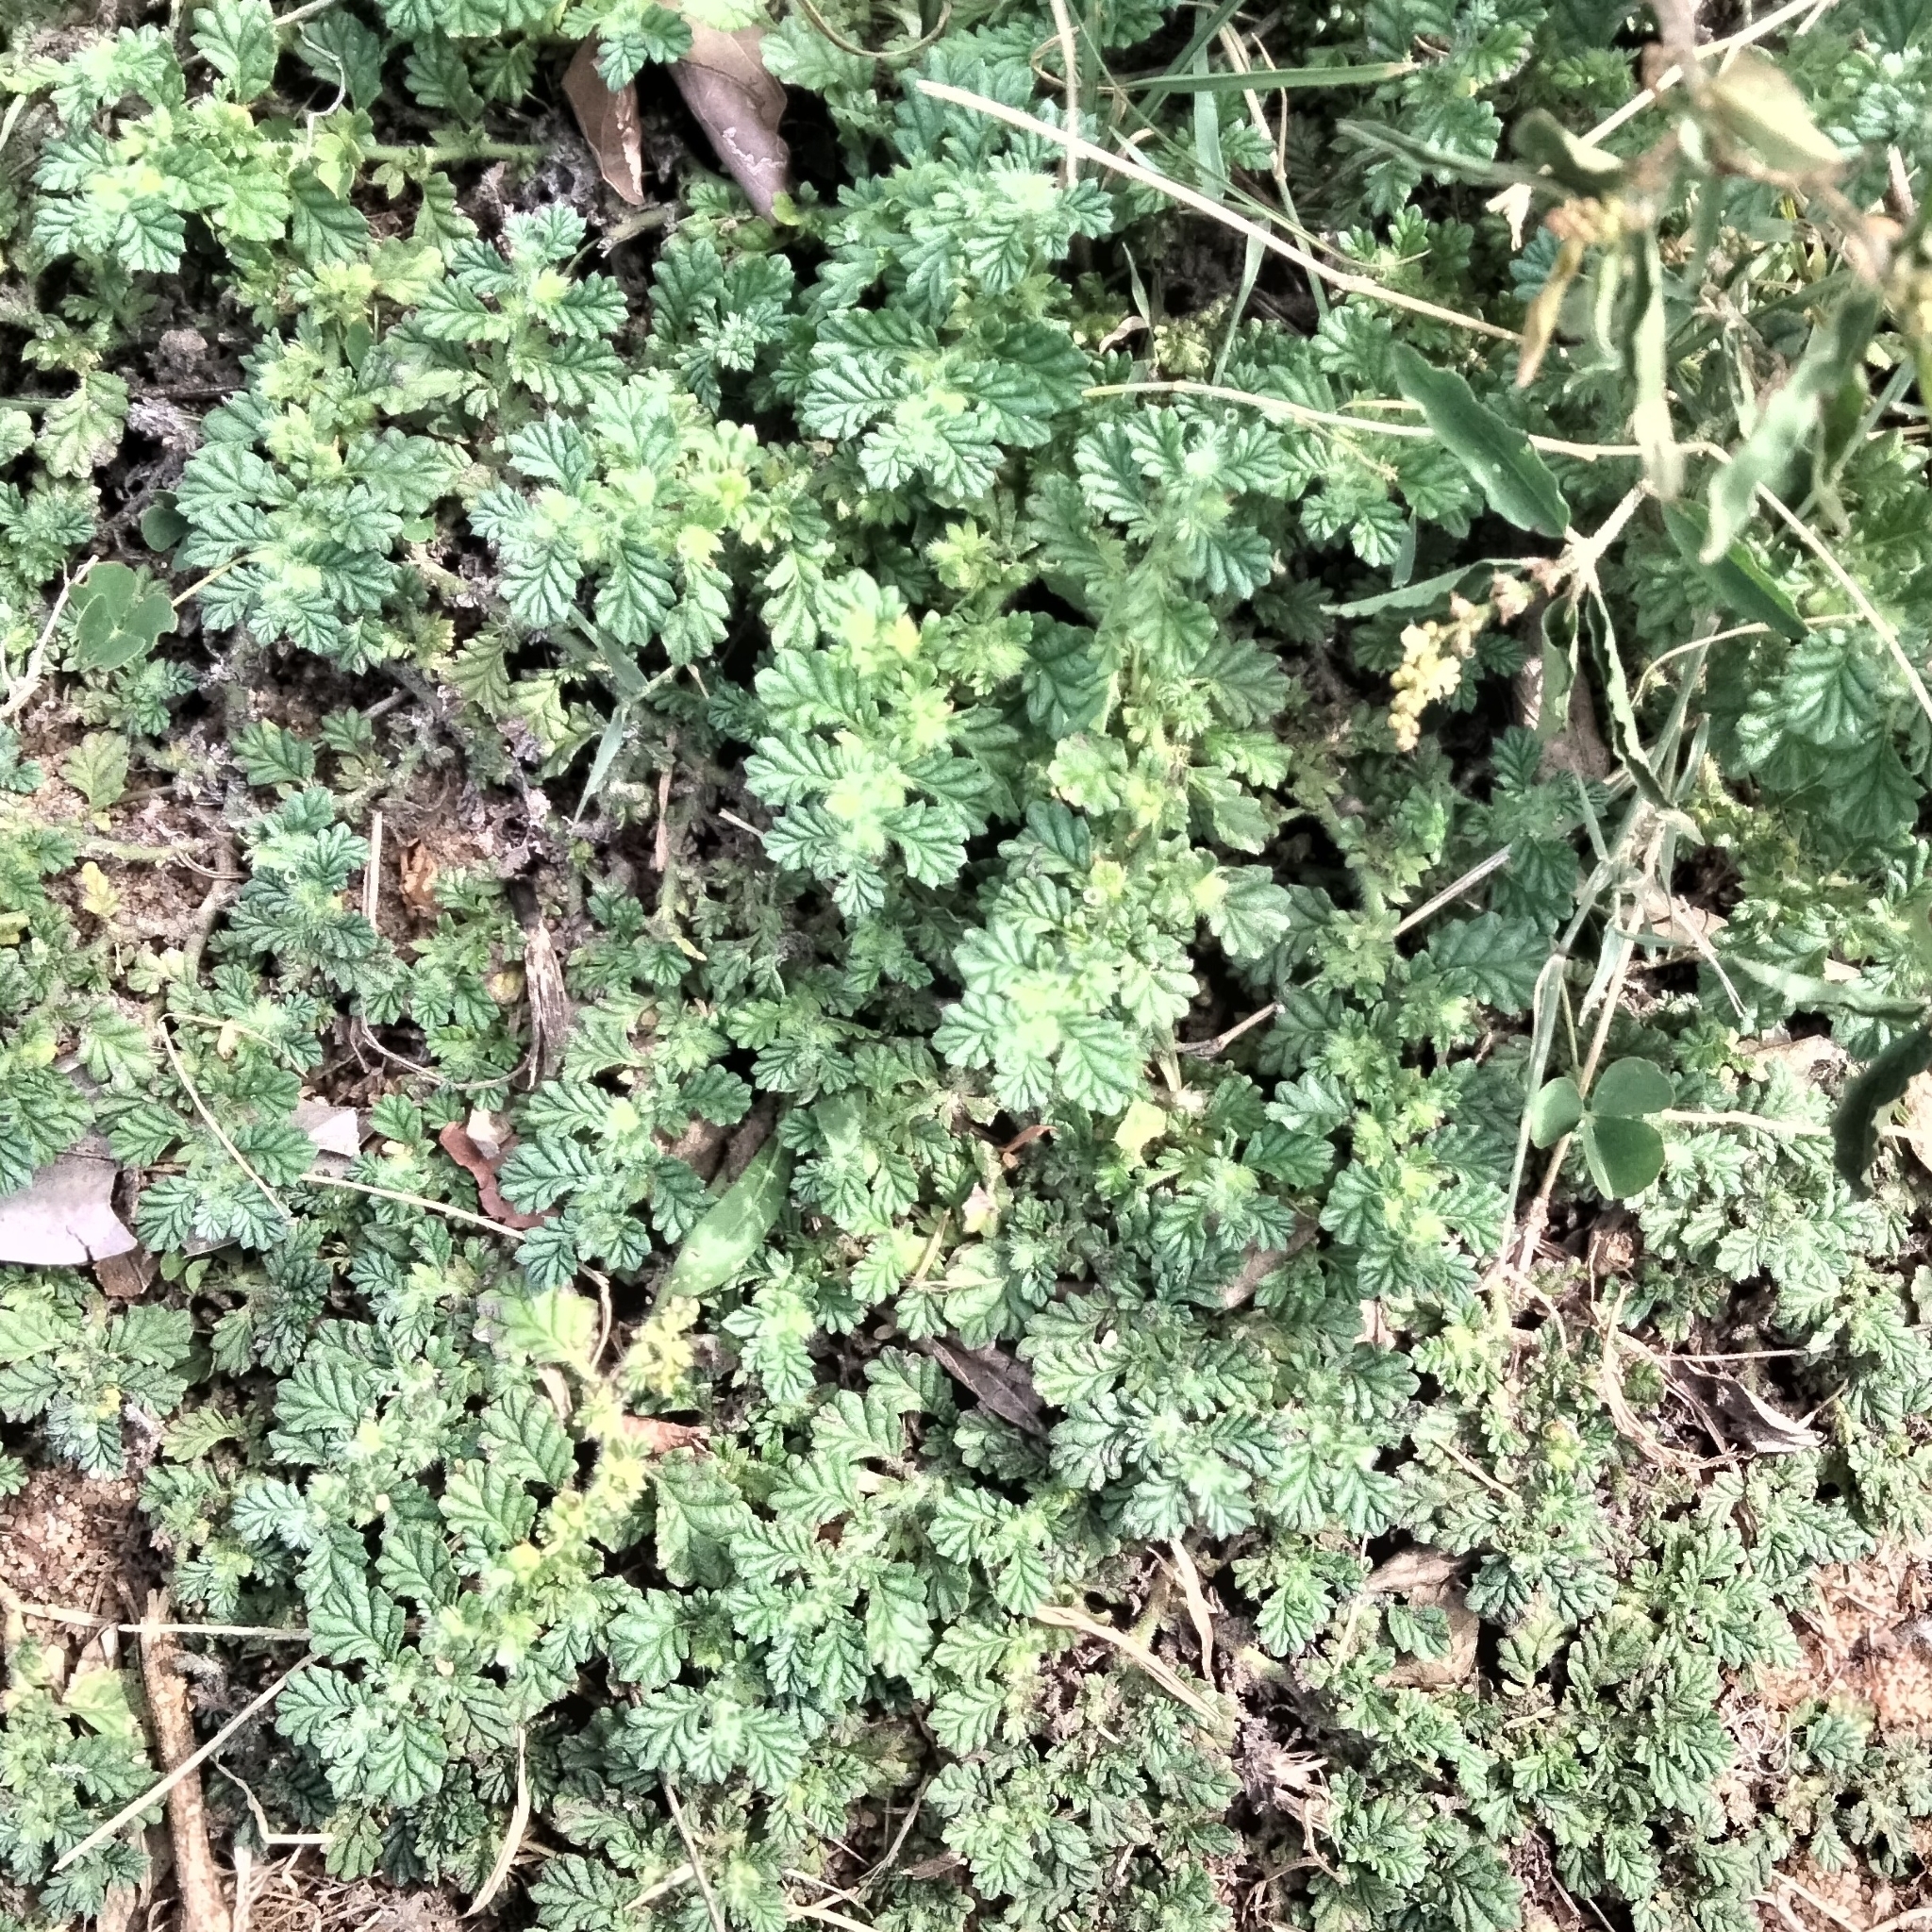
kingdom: Plantae
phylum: Tracheophyta
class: Magnoliopsida
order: Boraginales
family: Coldeniaceae
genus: Coldenia
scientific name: Coldenia procumbens
